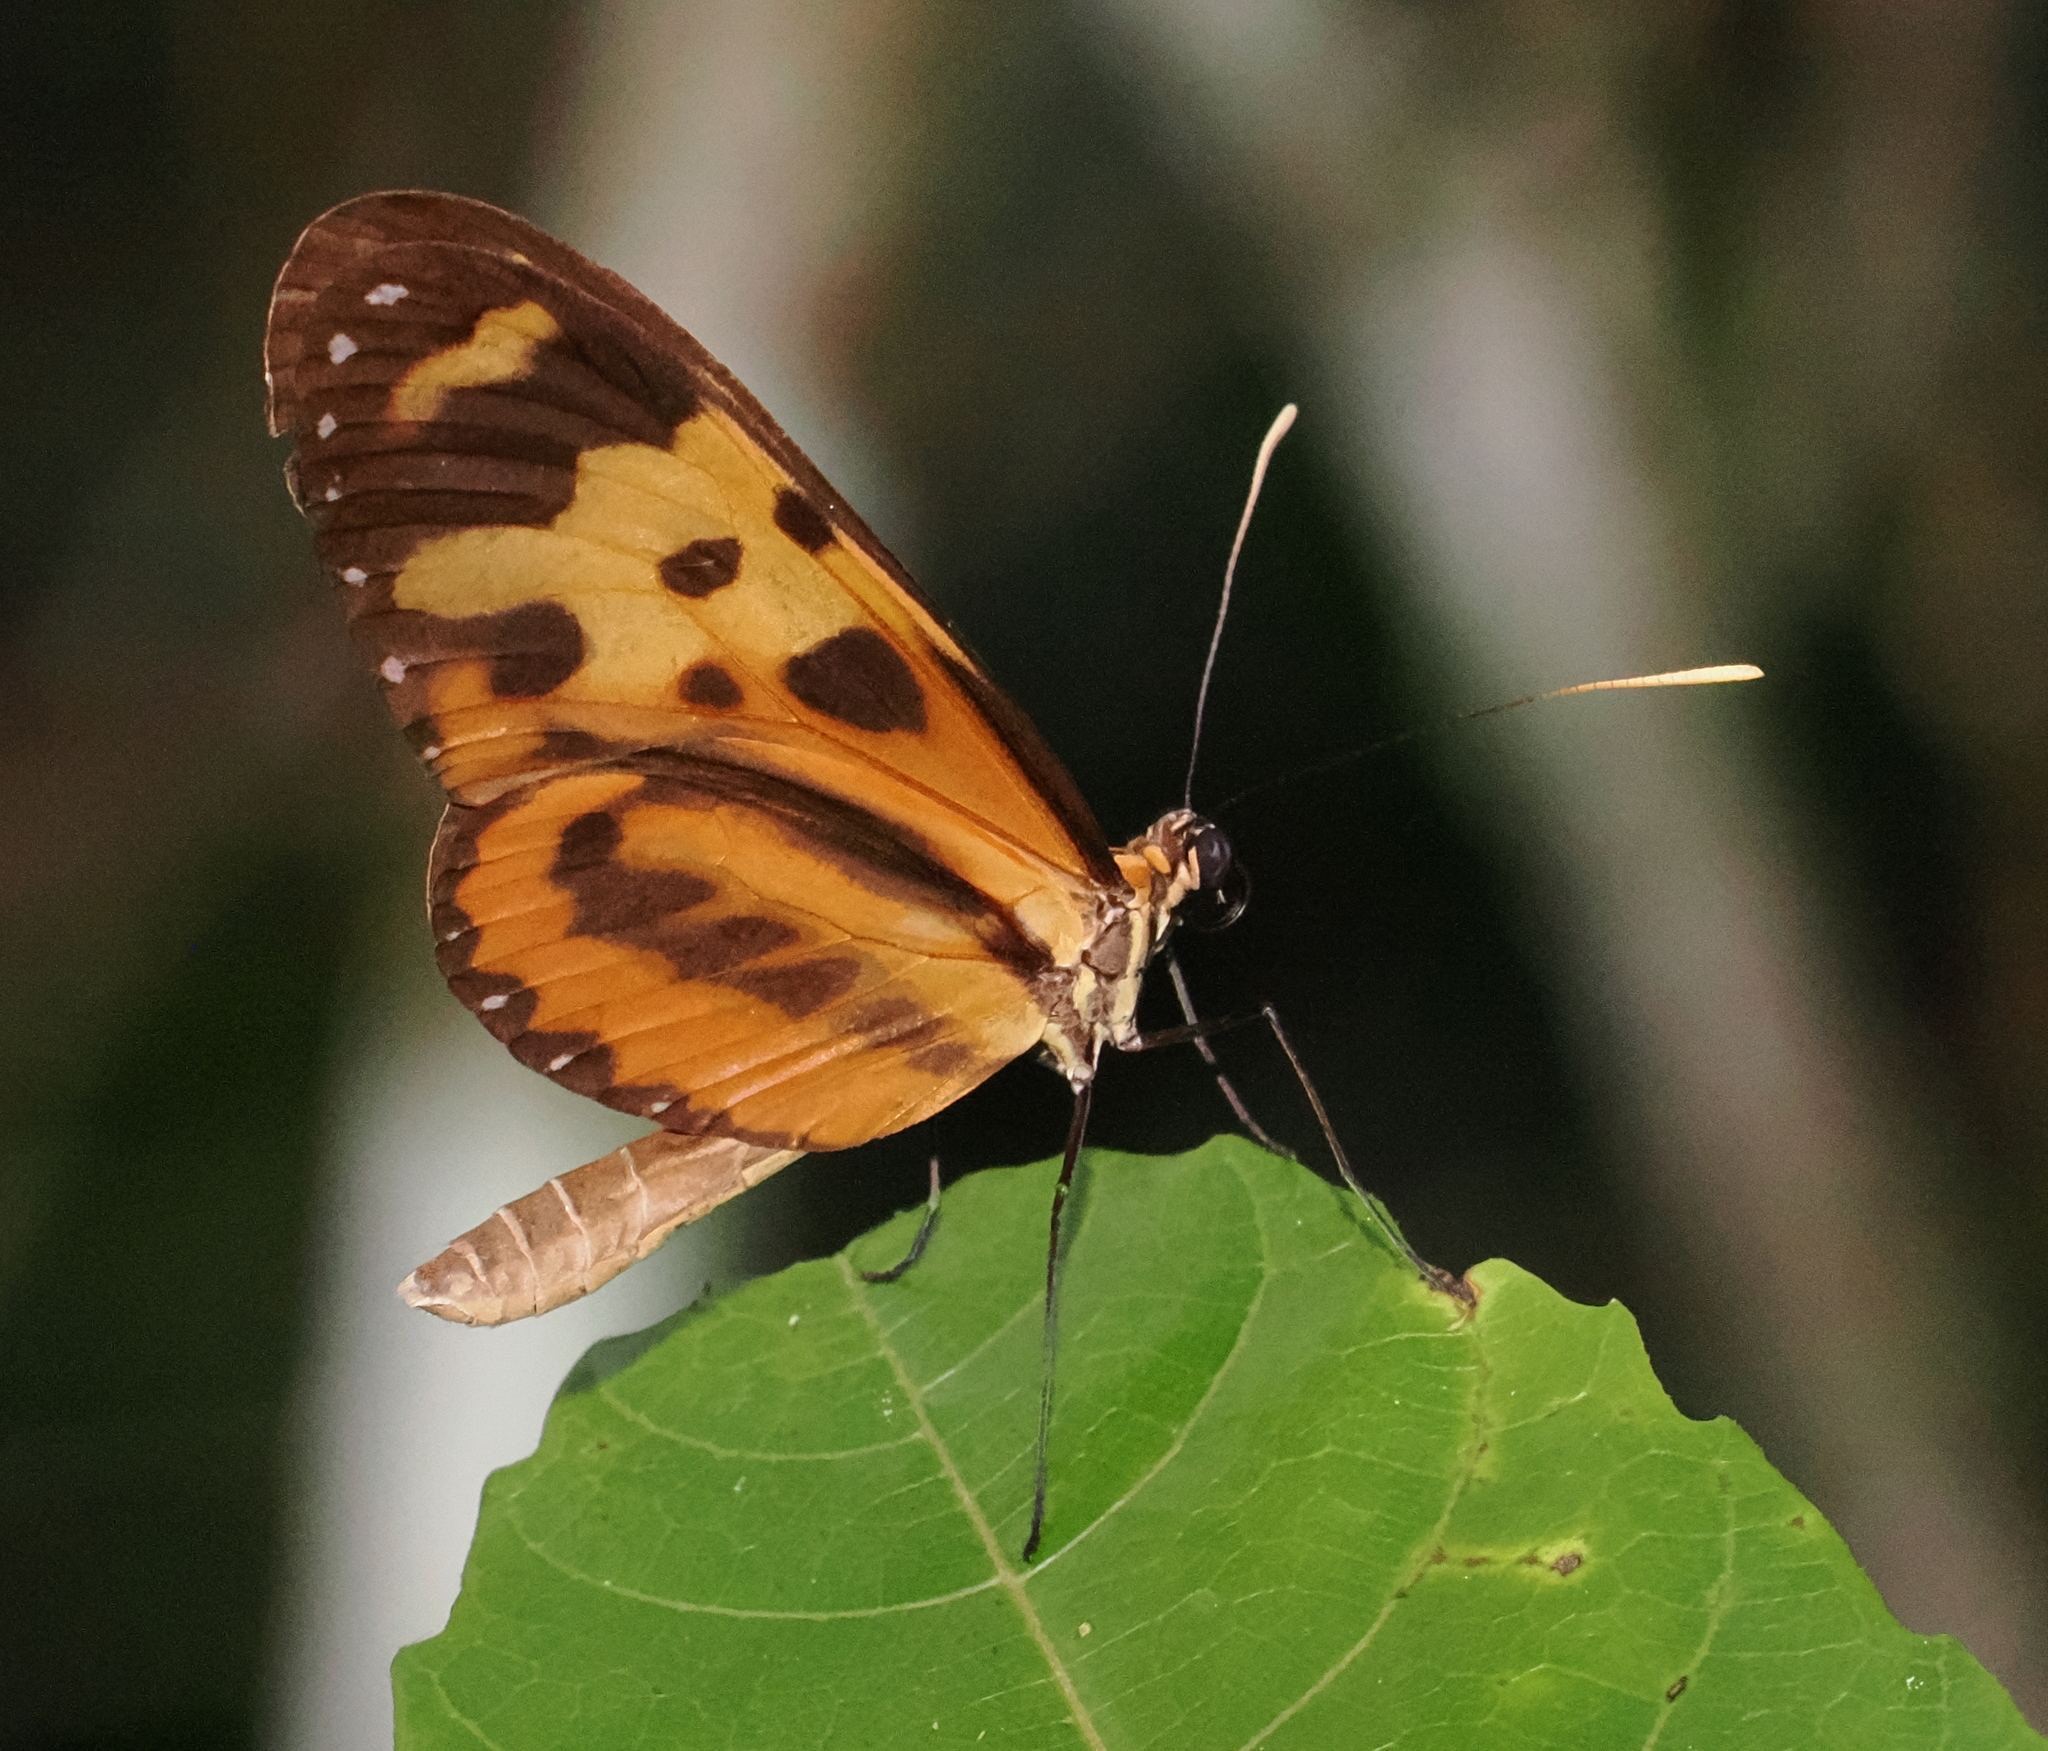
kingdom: Animalia
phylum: Arthropoda
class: Insecta
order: Lepidoptera
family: Nymphalidae
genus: Mechanitis
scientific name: Mechanitis polymnia
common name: Disturbed tigerwing
